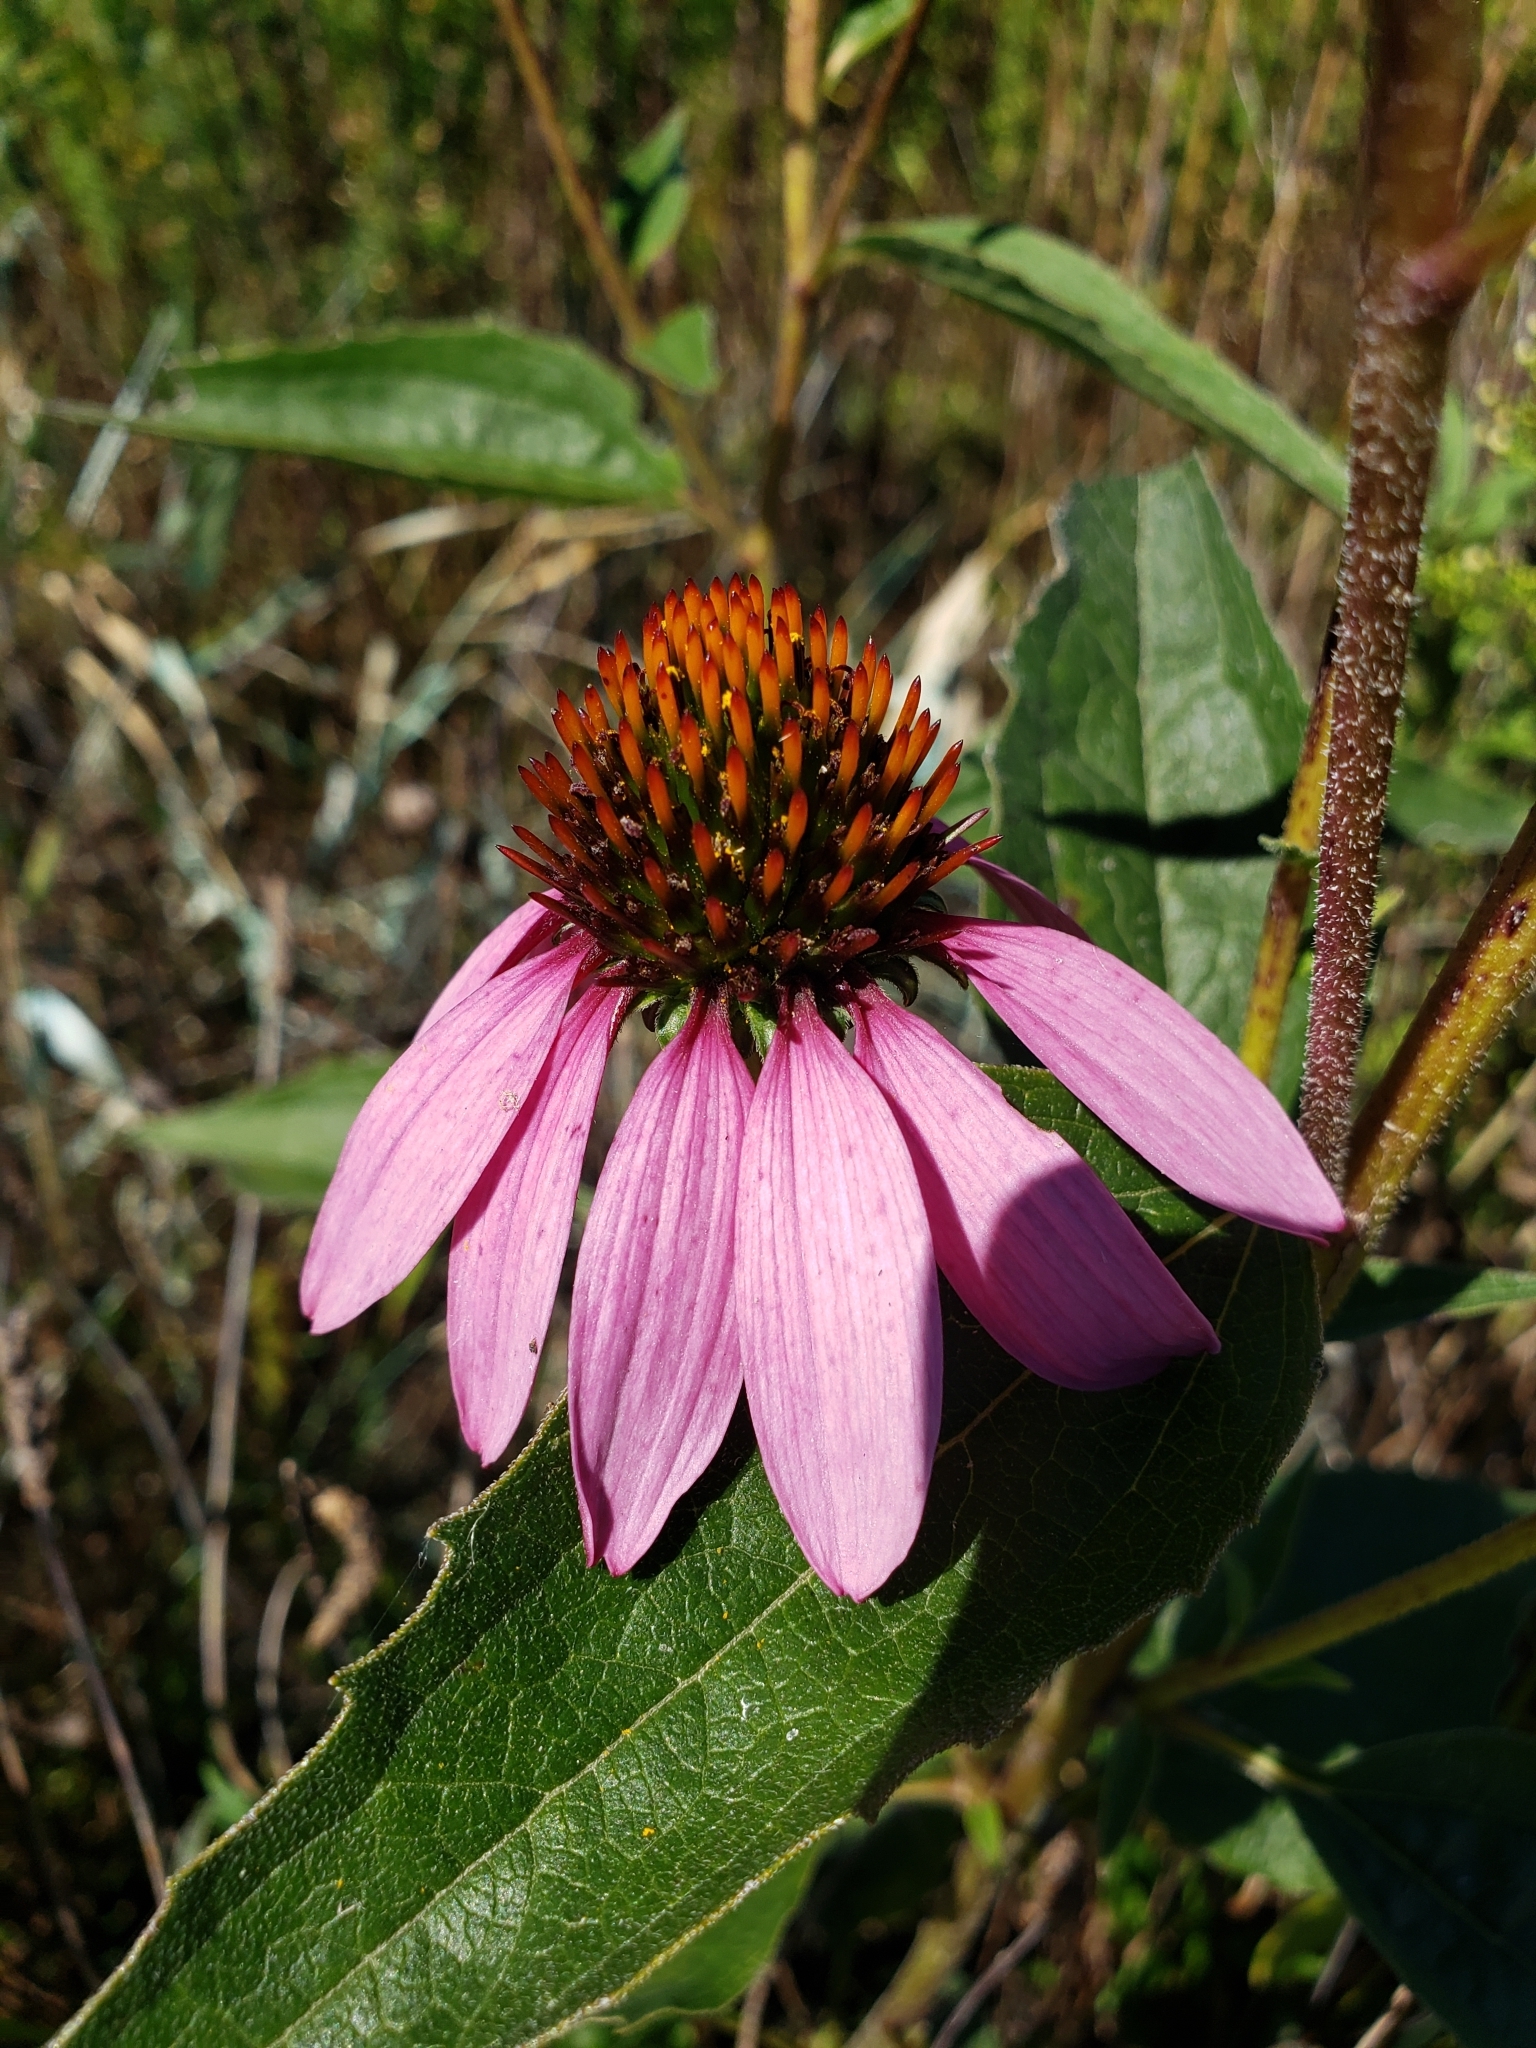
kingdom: Plantae
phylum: Tracheophyta
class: Magnoliopsida
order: Asterales
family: Asteraceae
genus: Echinacea
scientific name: Echinacea purpurea
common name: Broad-leaved purple coneflower
